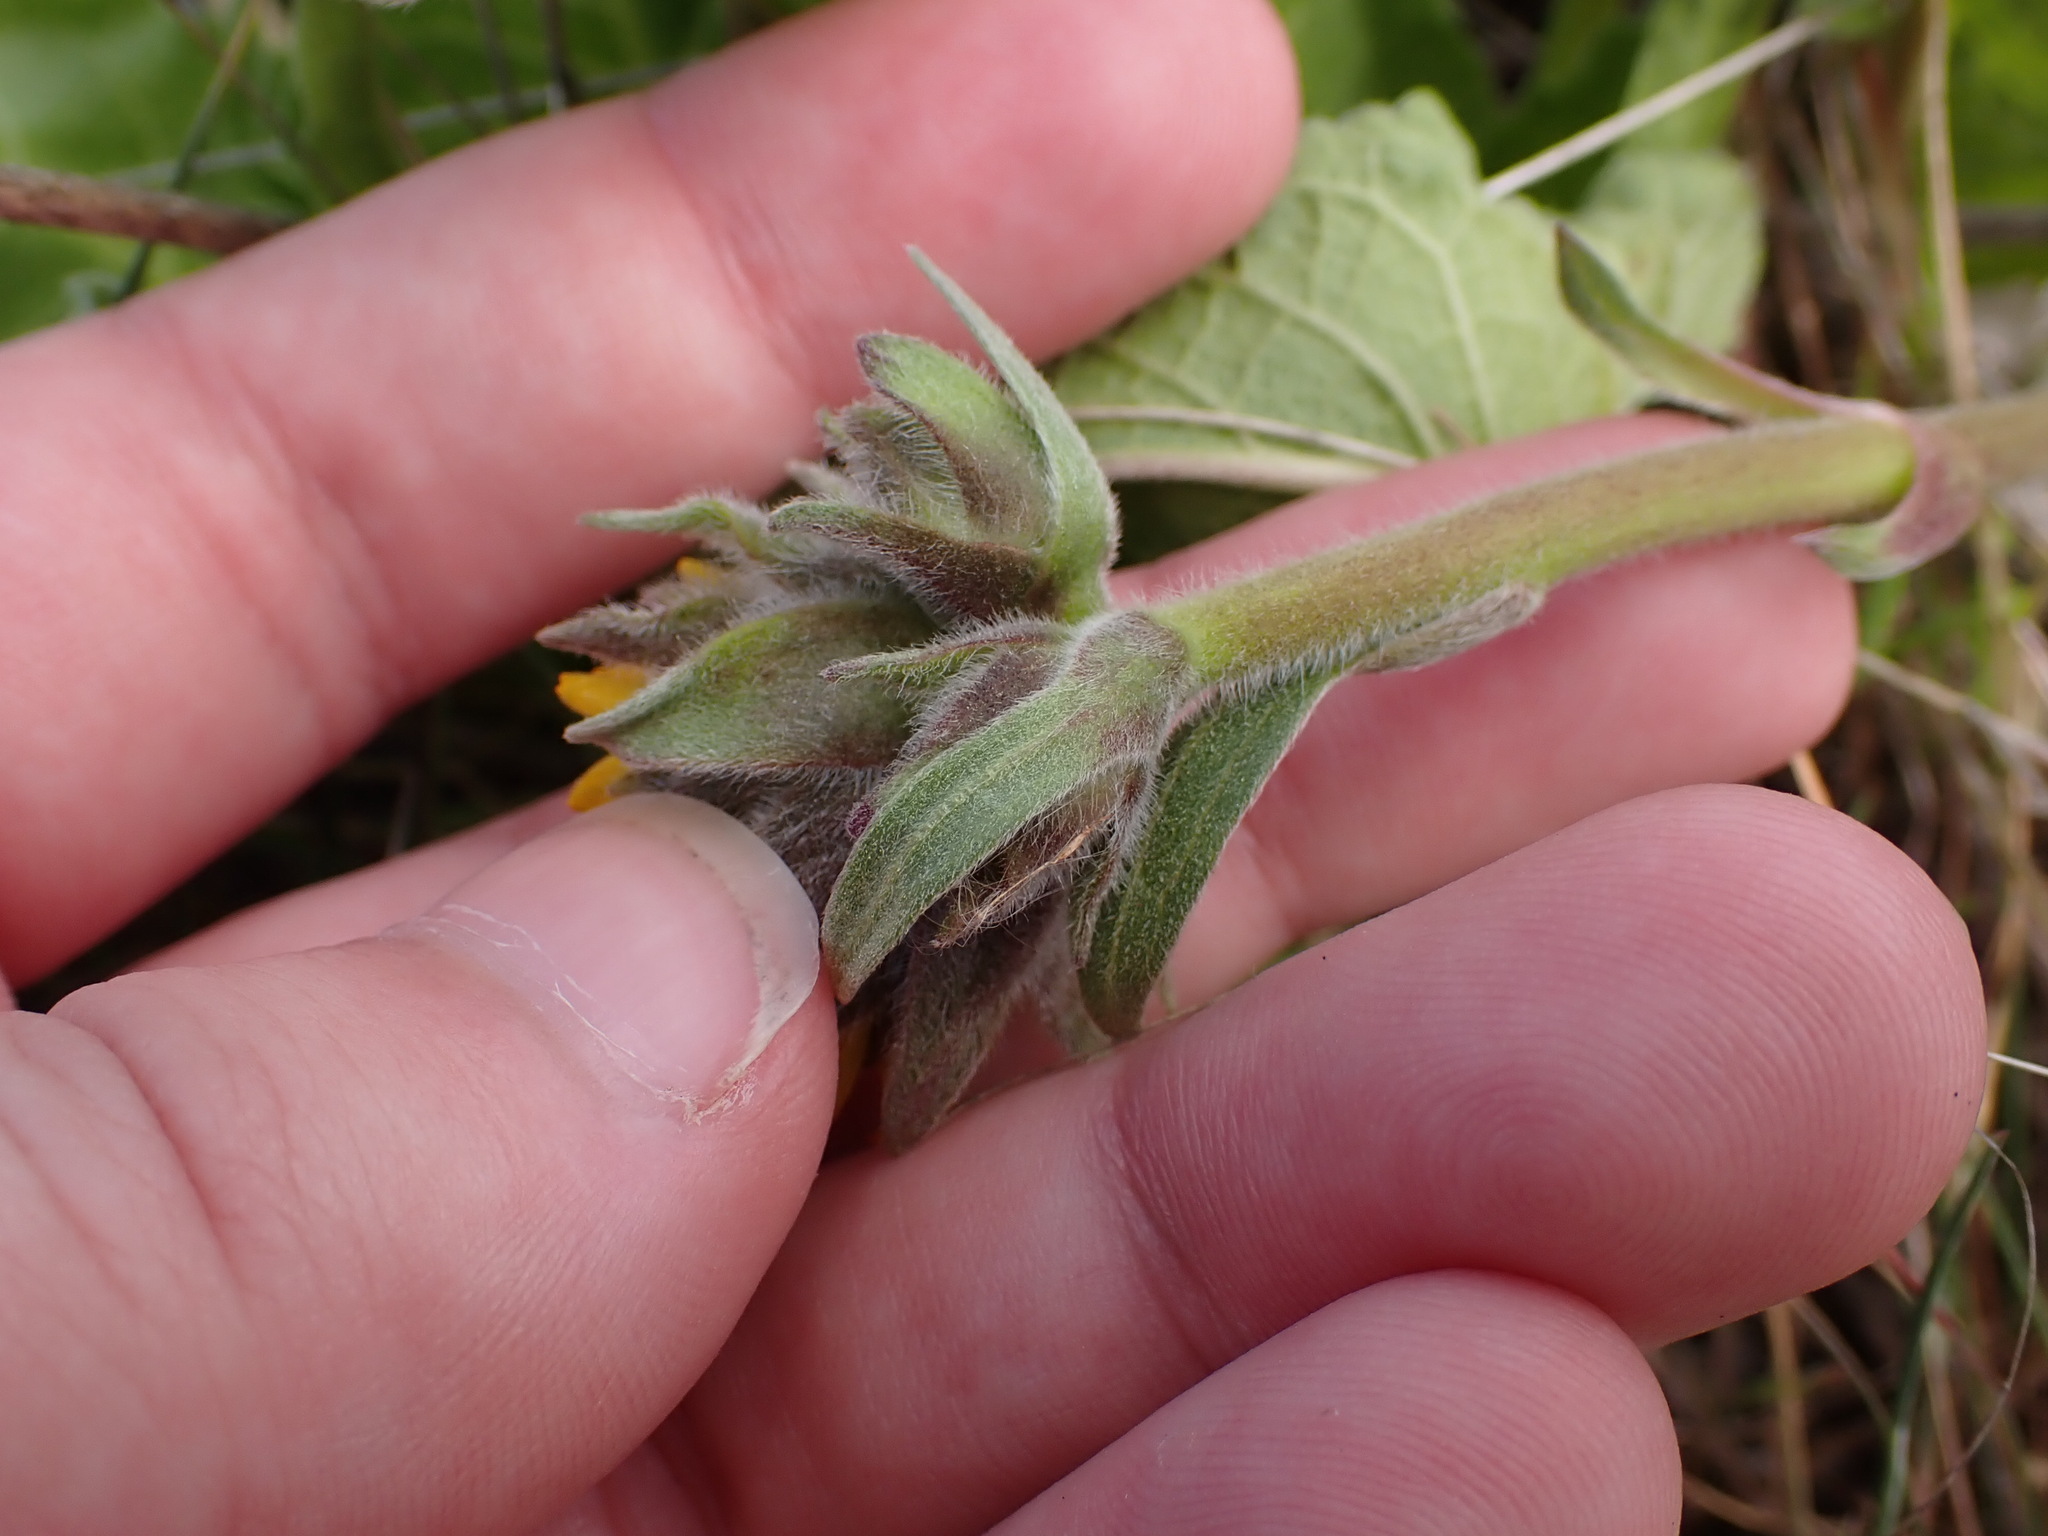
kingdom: Plantae
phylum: Tracheophyta
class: Magnoliopsida
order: Asterales
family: Asteraceae
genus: Balsamorhiza
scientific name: Balsamorhiza careyana
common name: Carey's balsamroot
